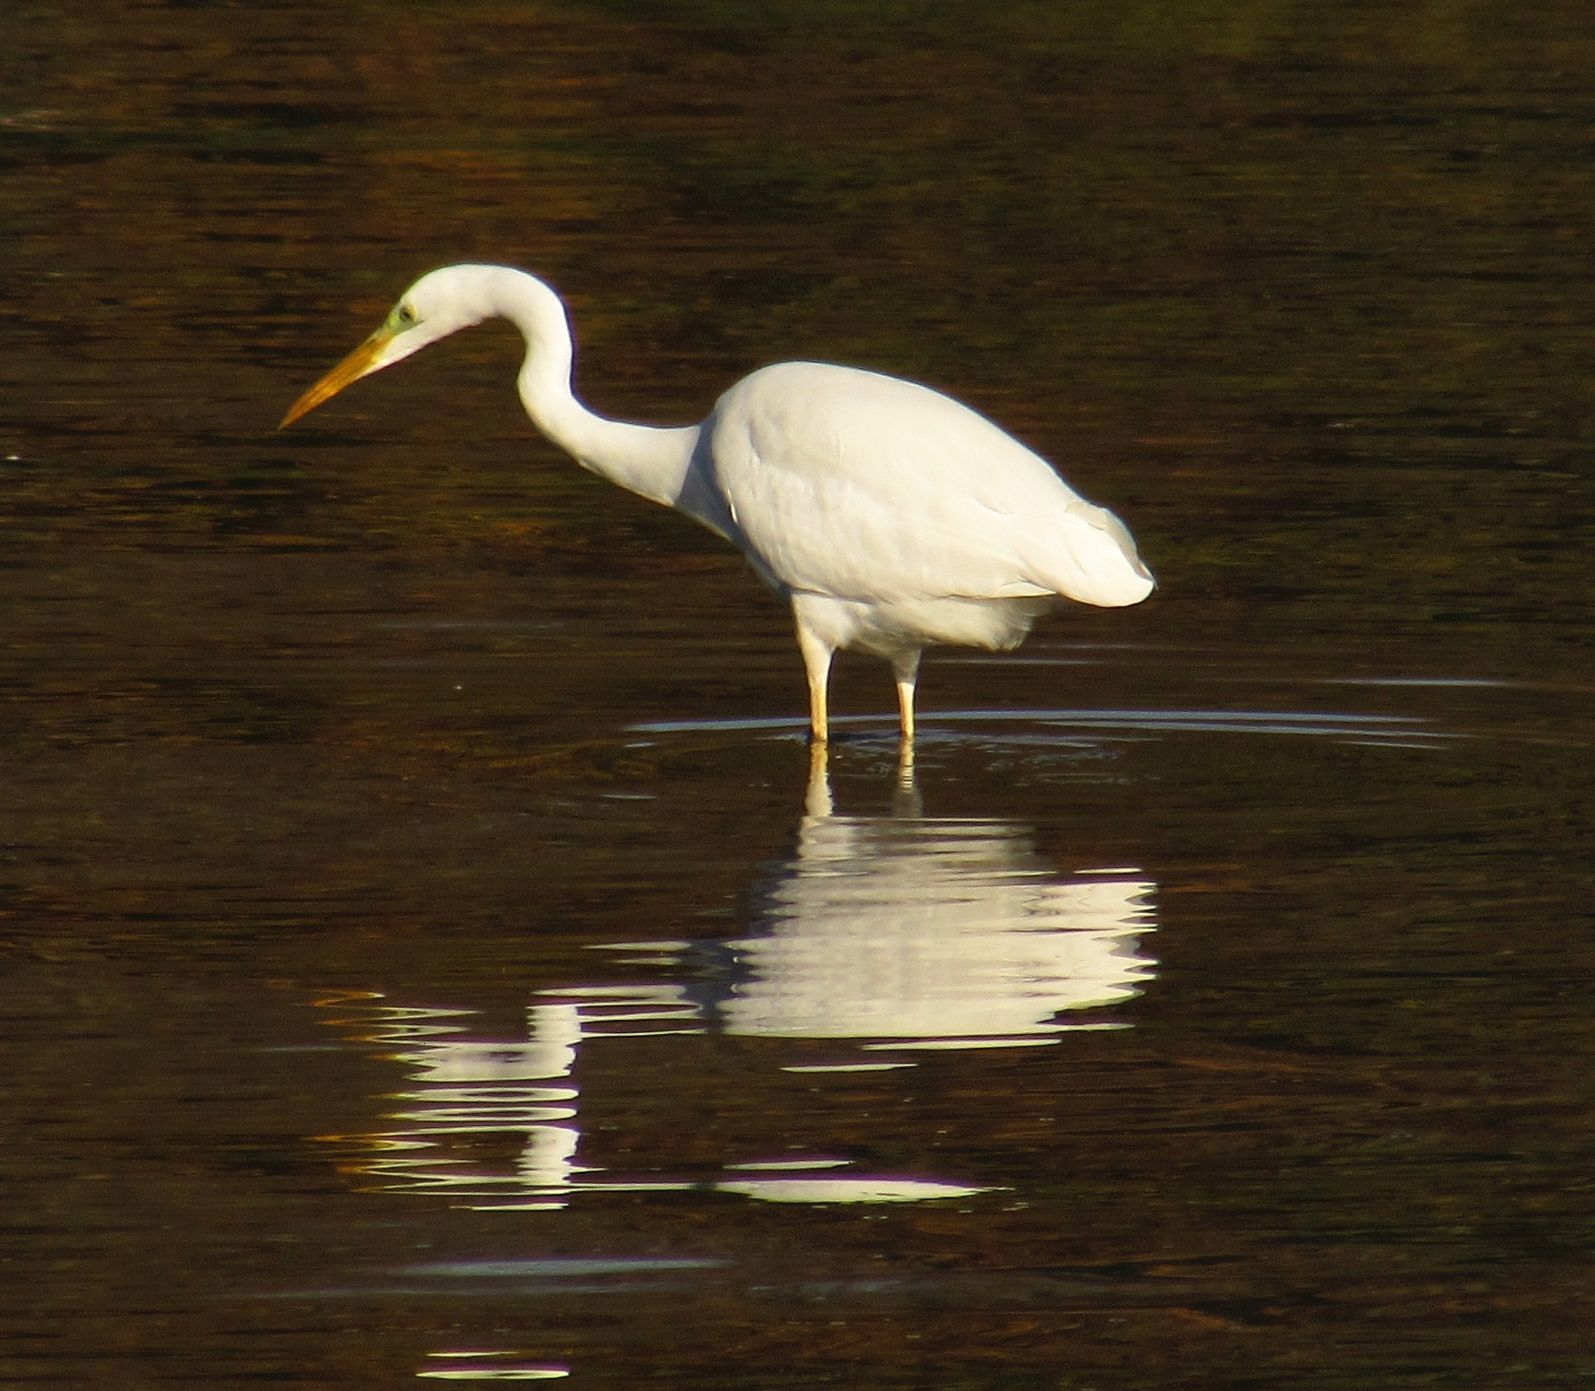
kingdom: Animalia
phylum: Chordata
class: Aves
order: Pelecaniformes
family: Ardeidae
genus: Ardea
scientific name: Ardea alba
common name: Great egret
